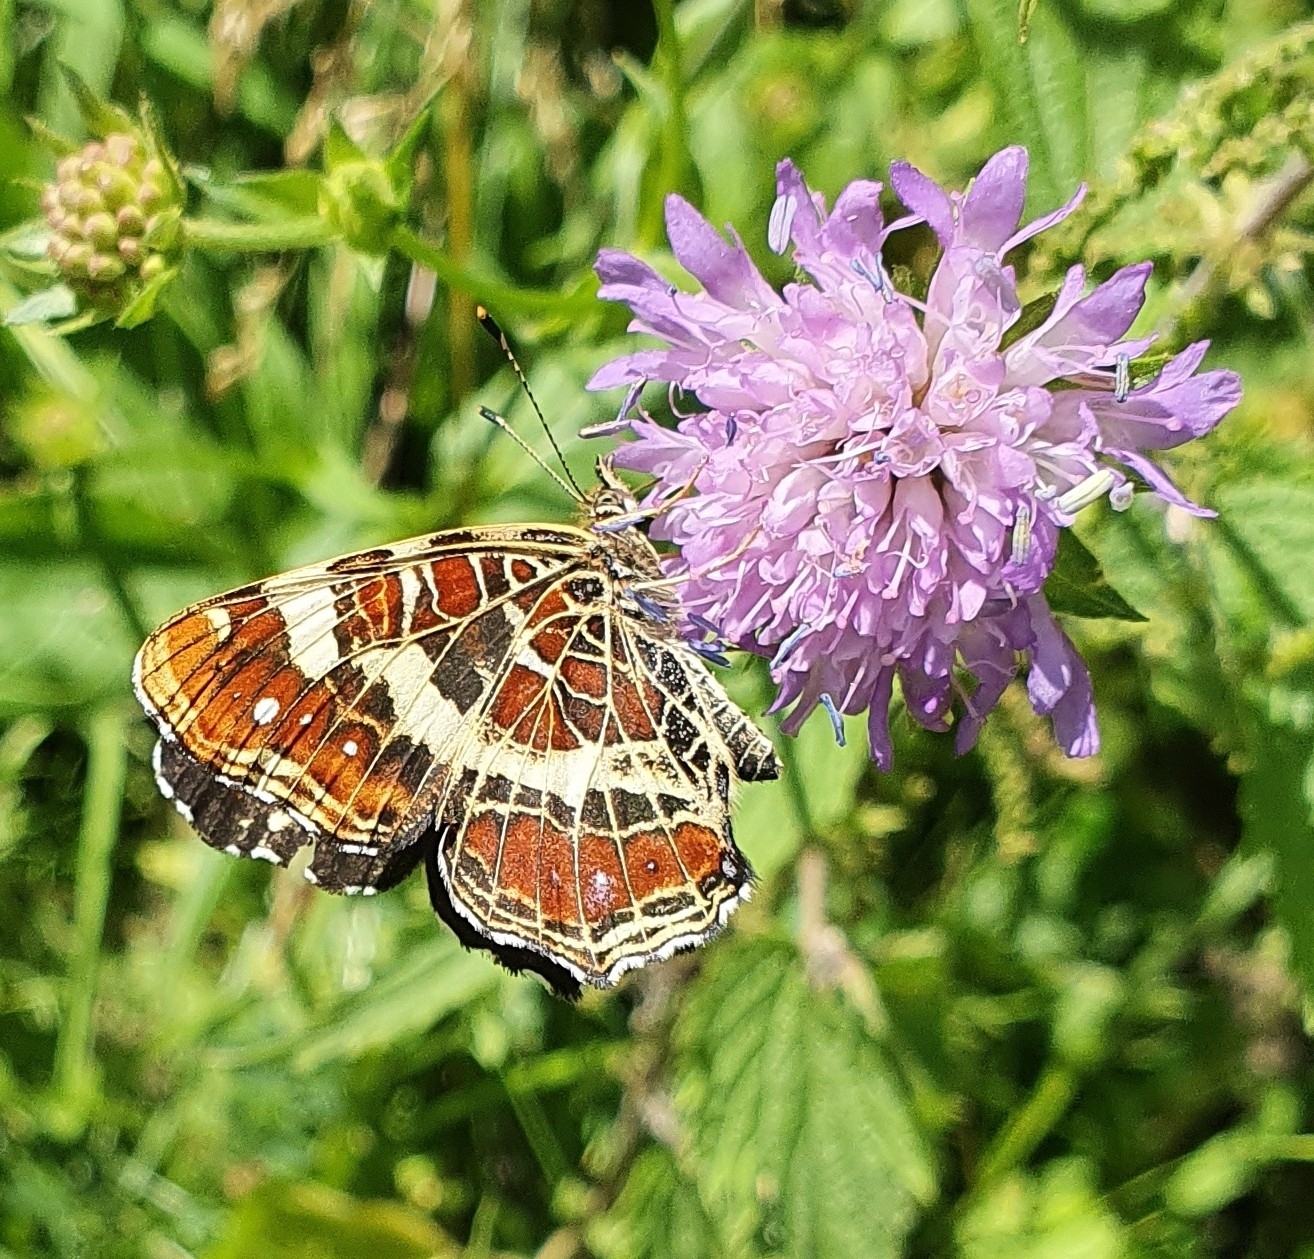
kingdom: Animalia
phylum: Arthropoda
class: Insecta
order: Lepidoptera
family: Nymphalidae
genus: Araschnia
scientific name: Araschnia levana
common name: Map butterfly
